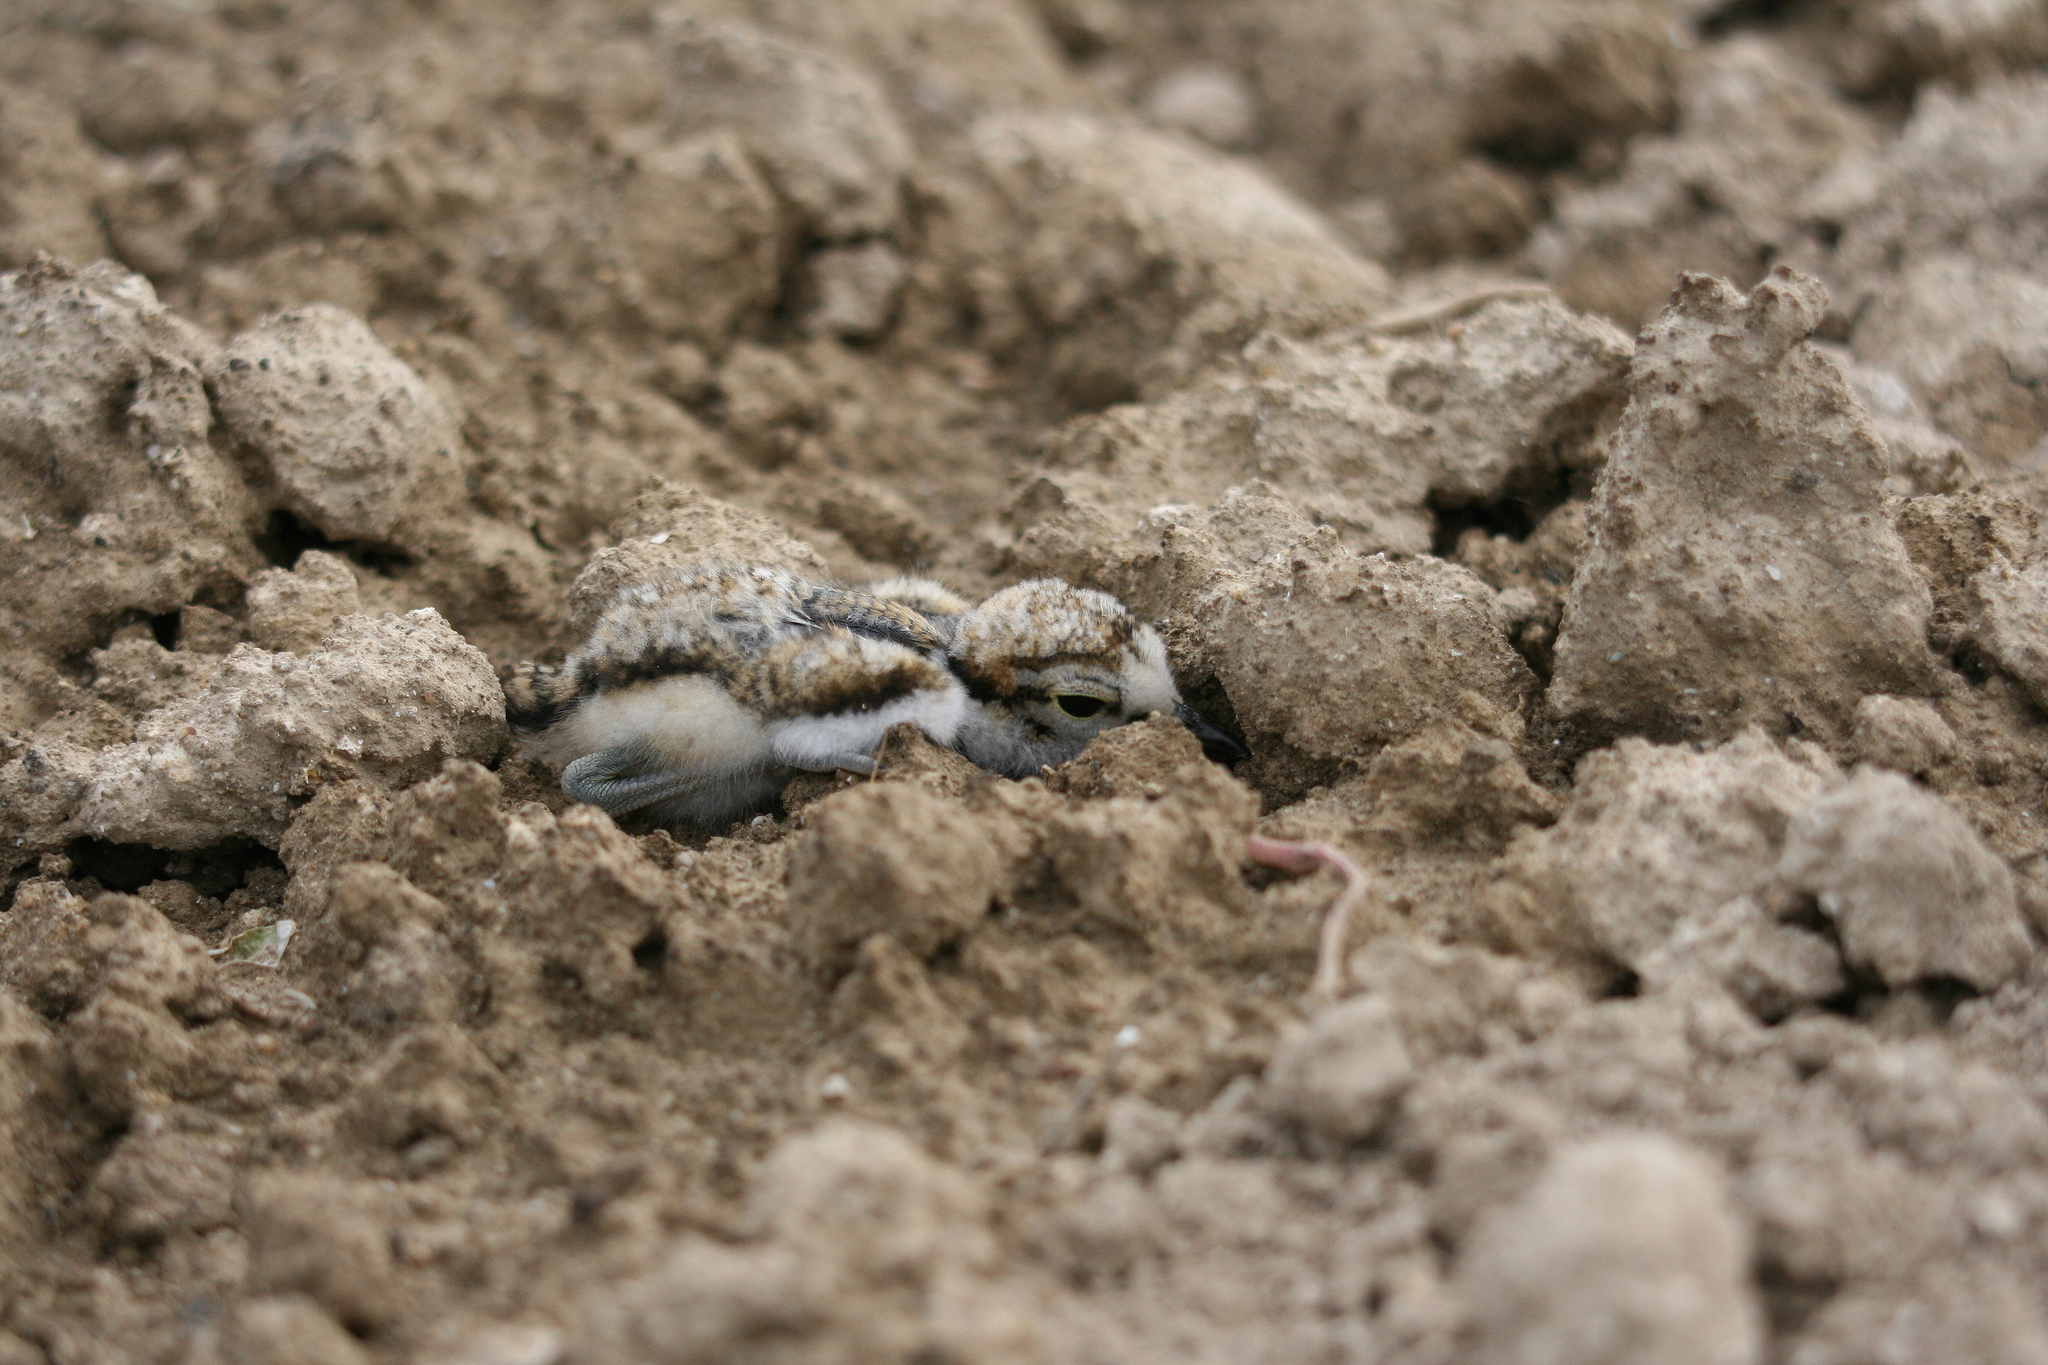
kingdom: Animalia
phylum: Chordata
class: Aves
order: Charadriiformes
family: Charadriidae
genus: Charadrius
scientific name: Charadrius dubius
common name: Little ringed plover
